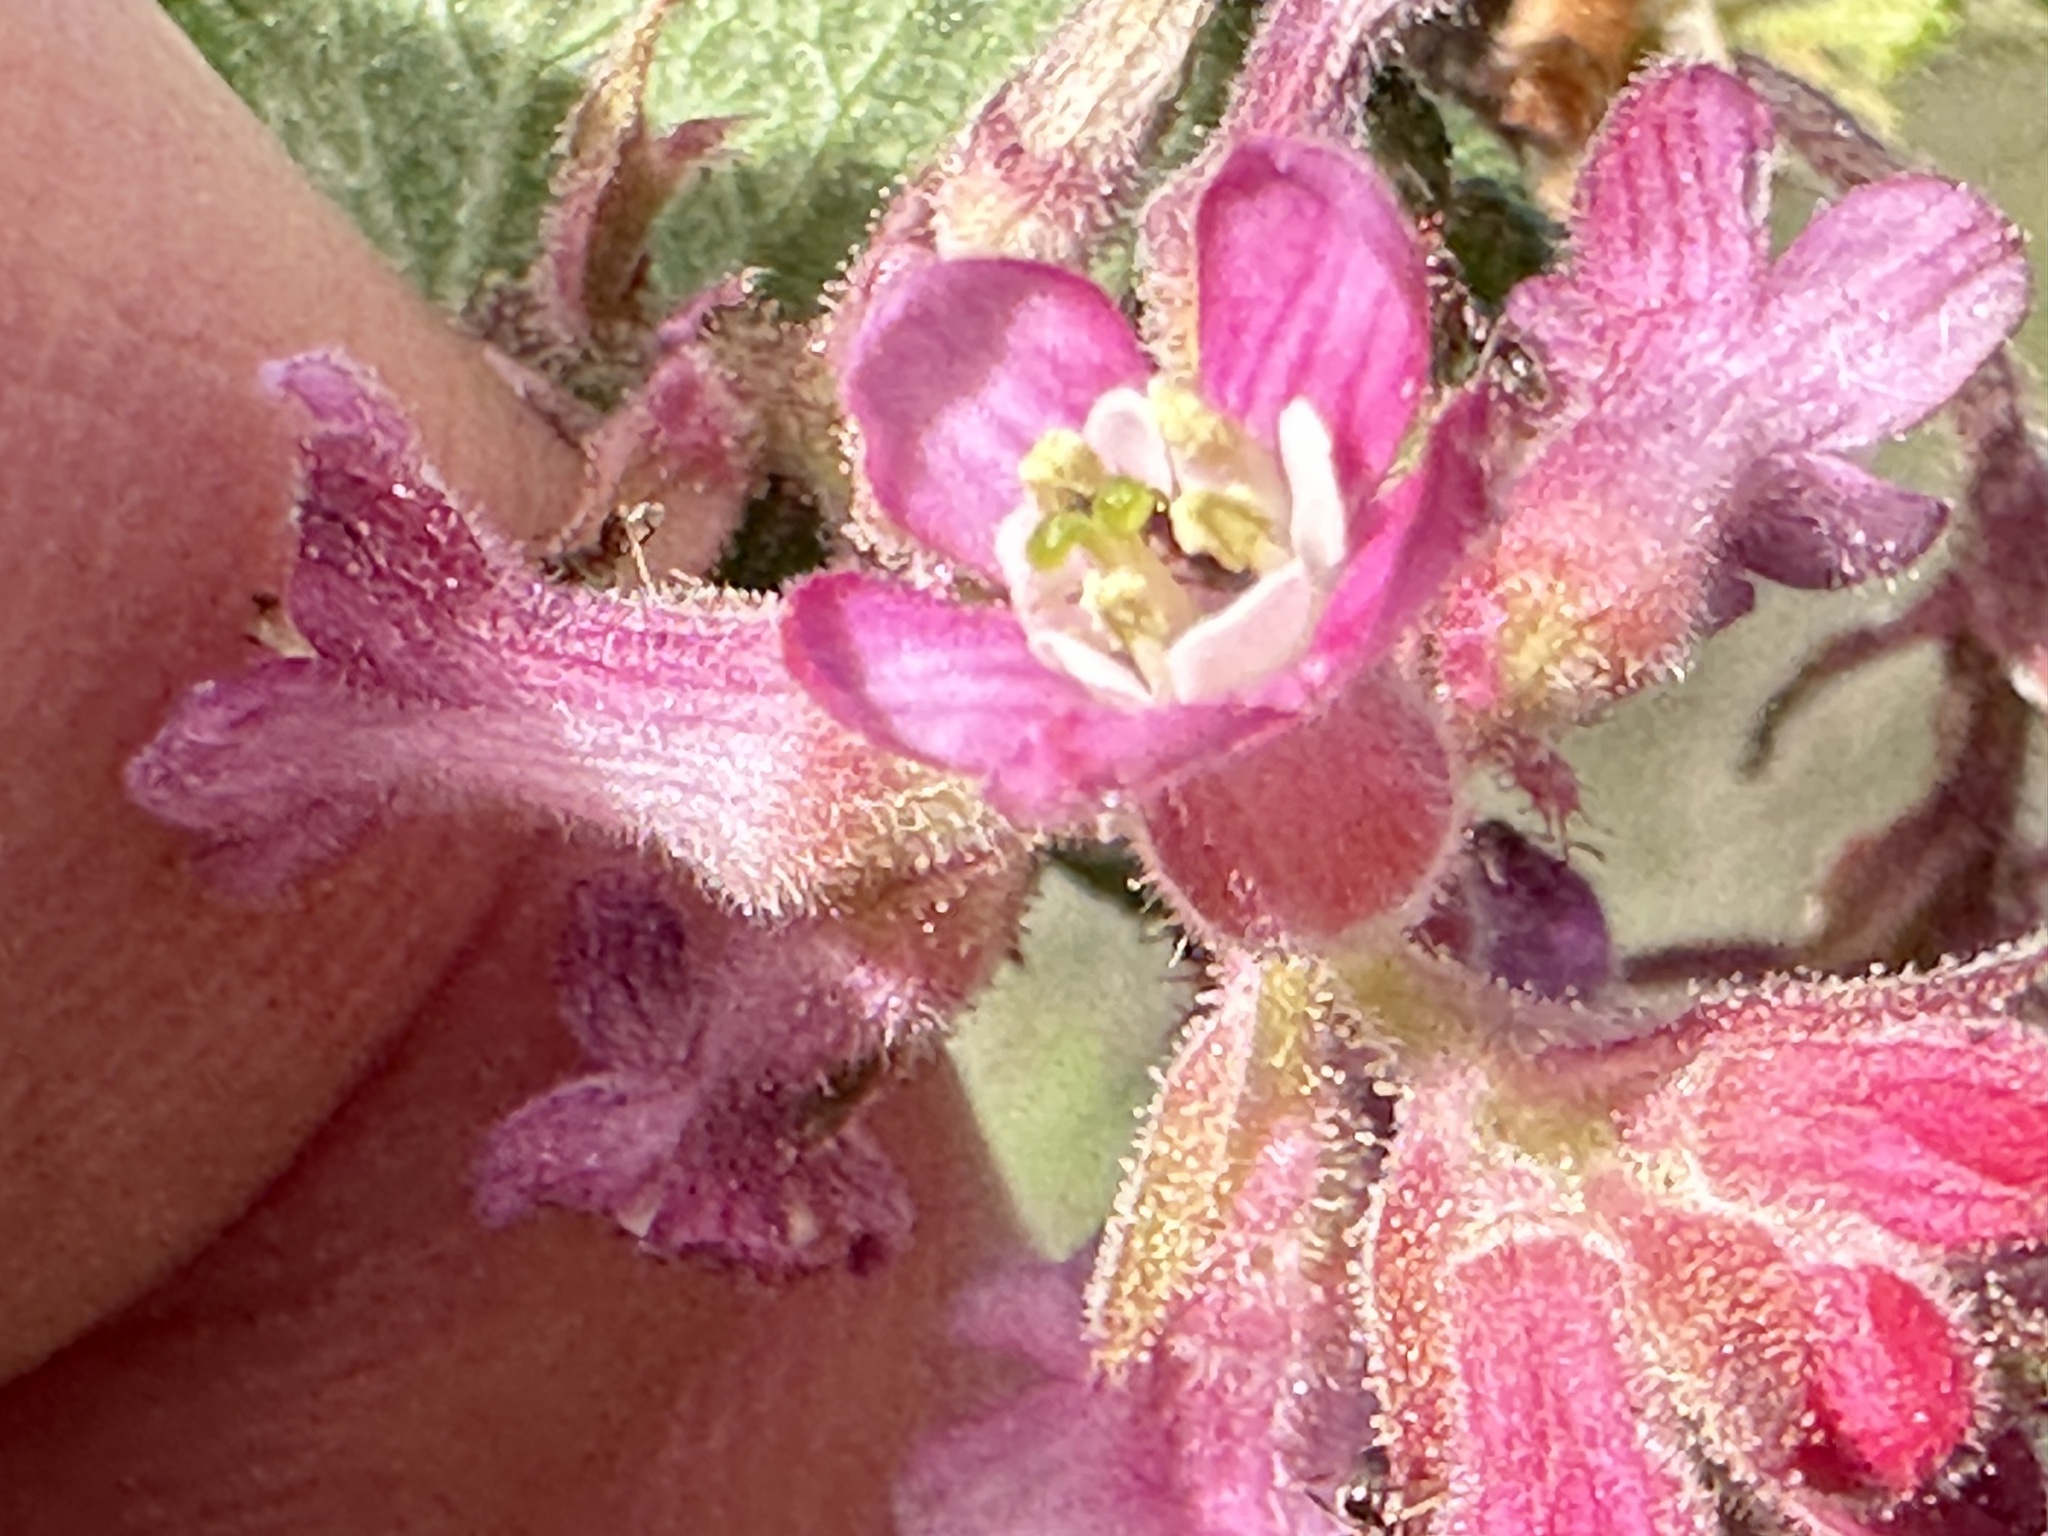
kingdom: Plantae
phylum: Tracheophyta
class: Magnoliopsida
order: Saxifragales
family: Grossulariaceae
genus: Ribes
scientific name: Ribes malvaceum
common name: Chaparral currant
